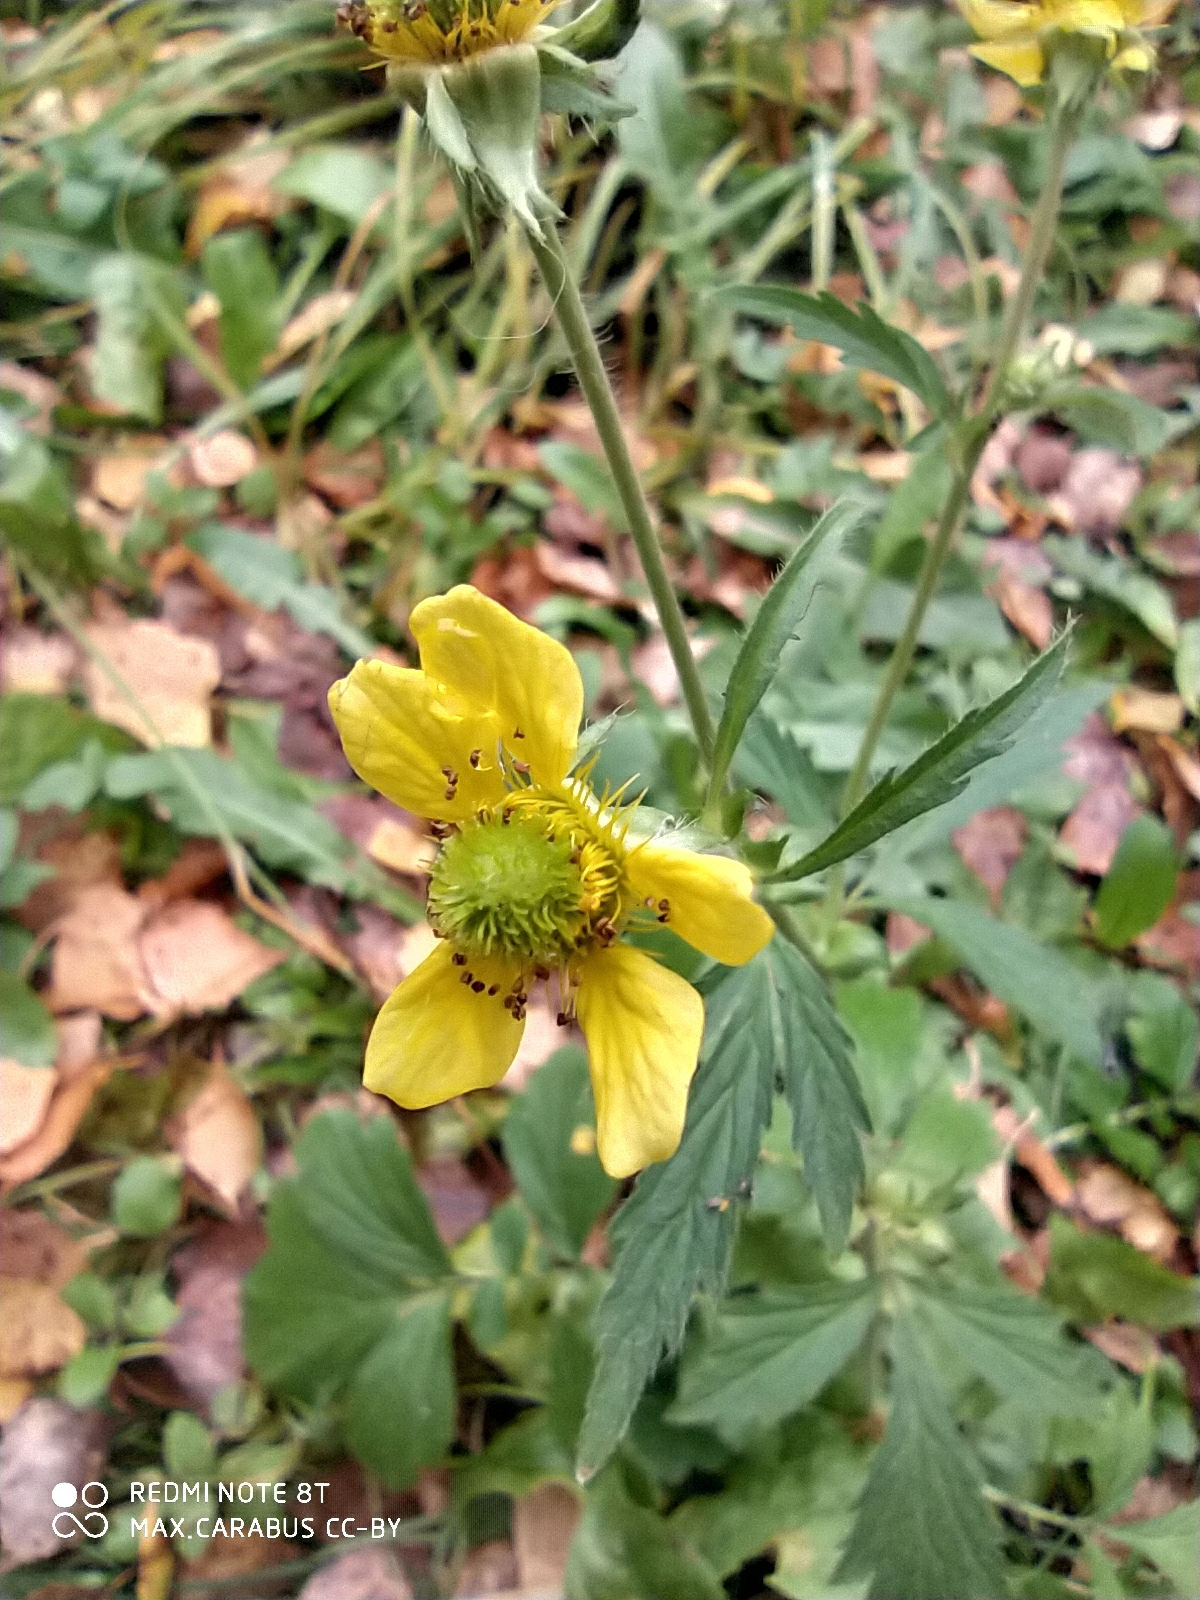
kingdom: Plantae
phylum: Tracheophyta
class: Magnoliopsida
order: Rosales
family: Rosaceae
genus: Geum
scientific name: Geum aleppicum
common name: Yellow avens
